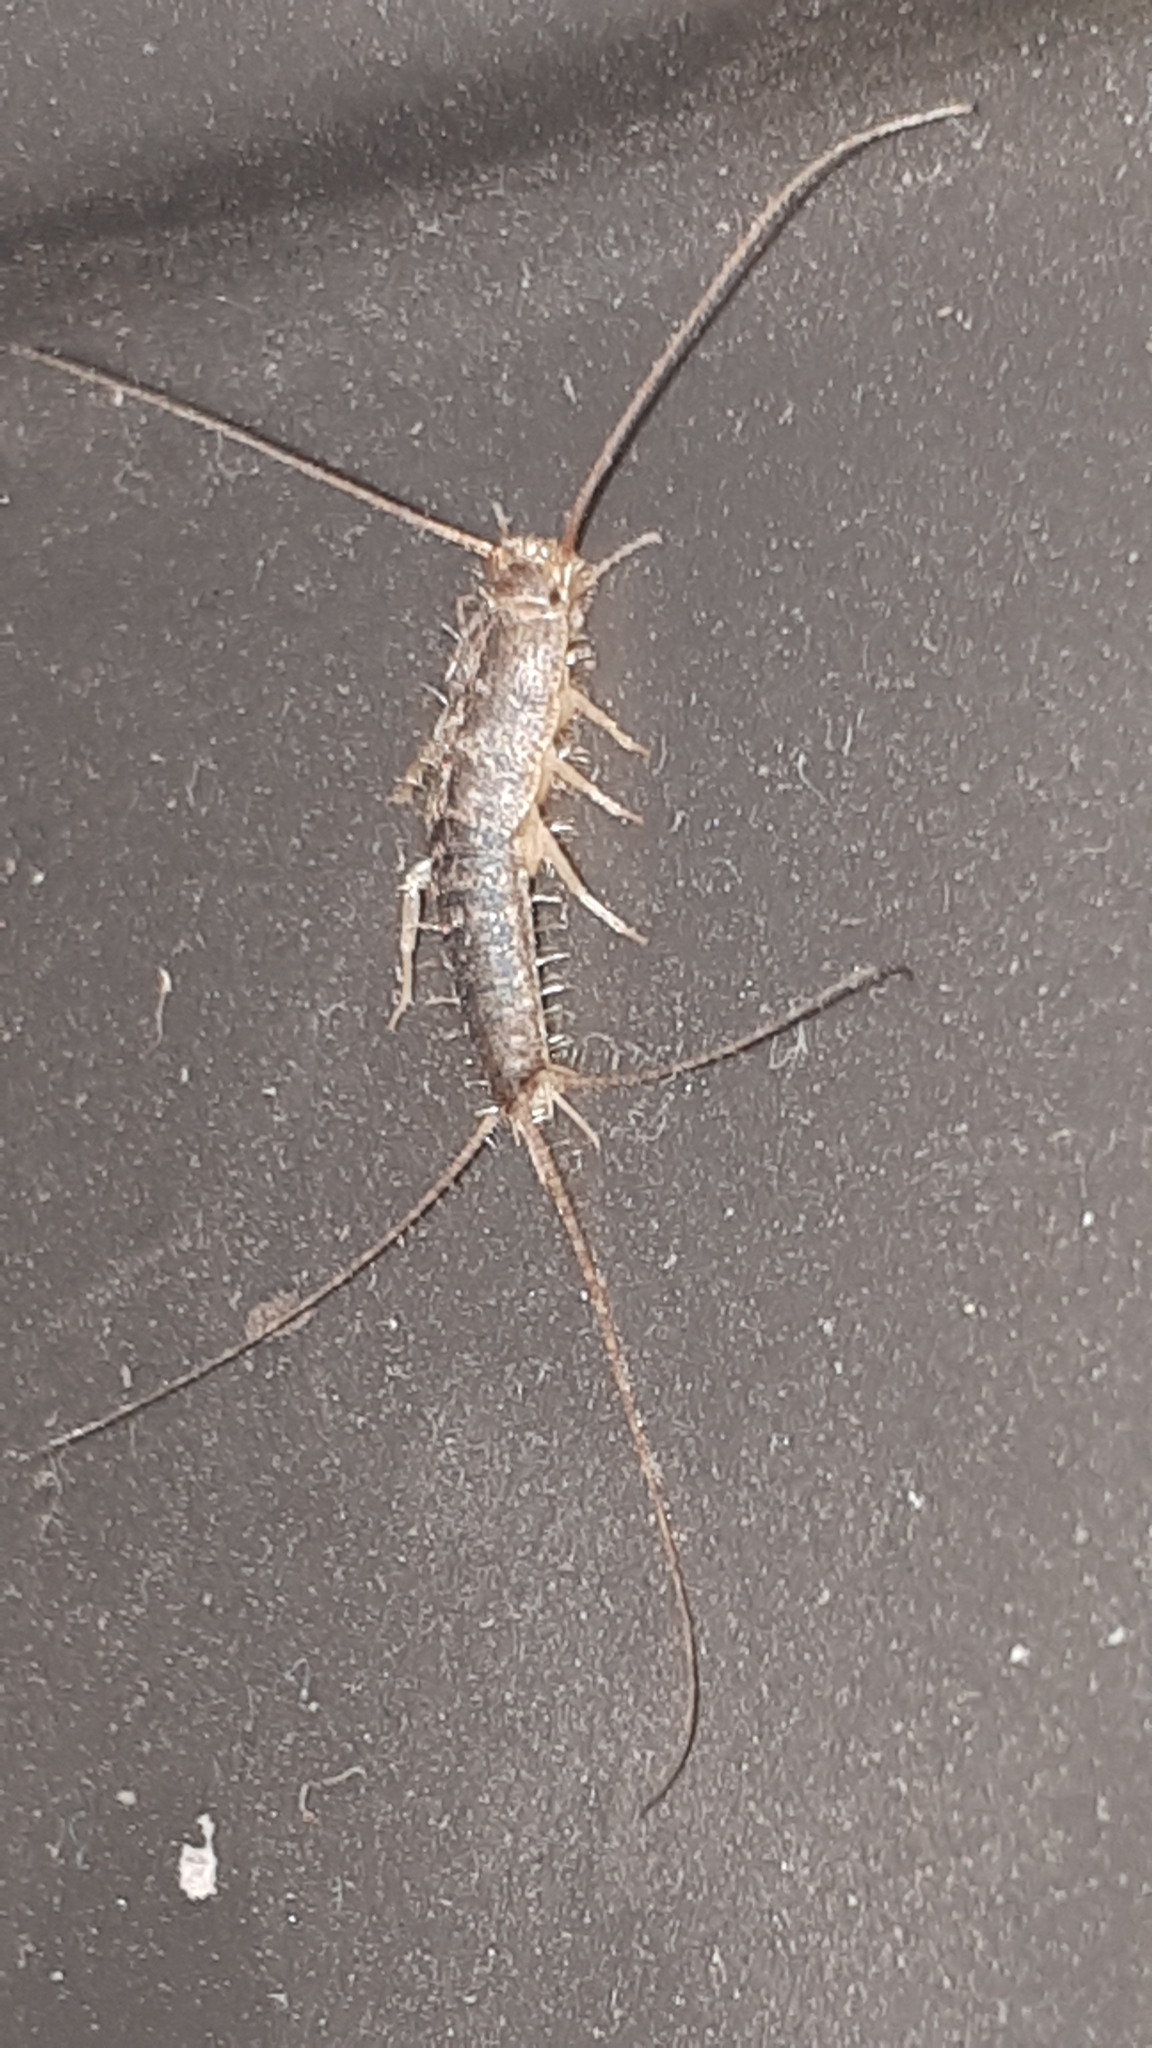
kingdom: Animalia
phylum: Arthropoda
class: Insecta
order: Zygentoma
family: Lepismatidae
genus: Ctenolepisma
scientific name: Ctenolepisma longicaudatum
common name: Silverfish
